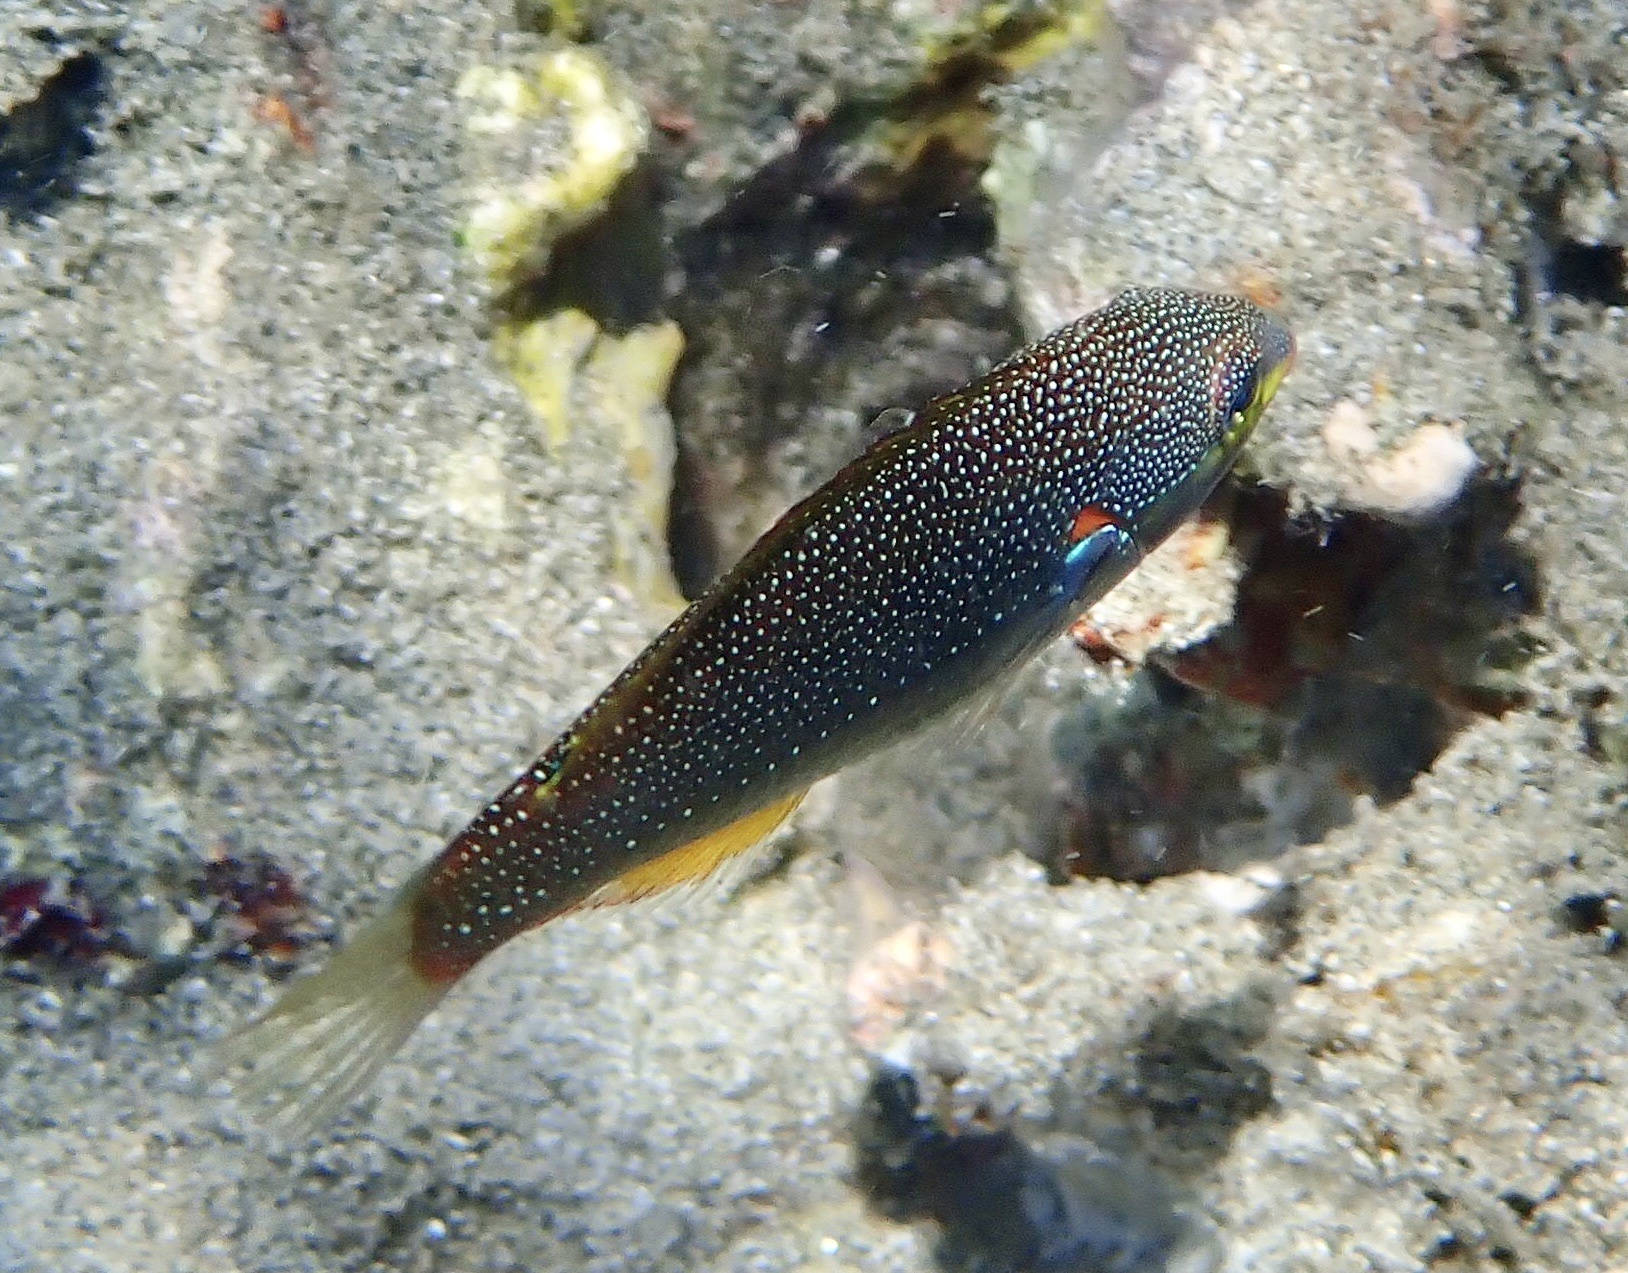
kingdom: Animalia
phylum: Chordata
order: Perciformes
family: Labridae
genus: Stethojulis
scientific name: Stethojulis albovittata
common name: Bluelined wrasse
